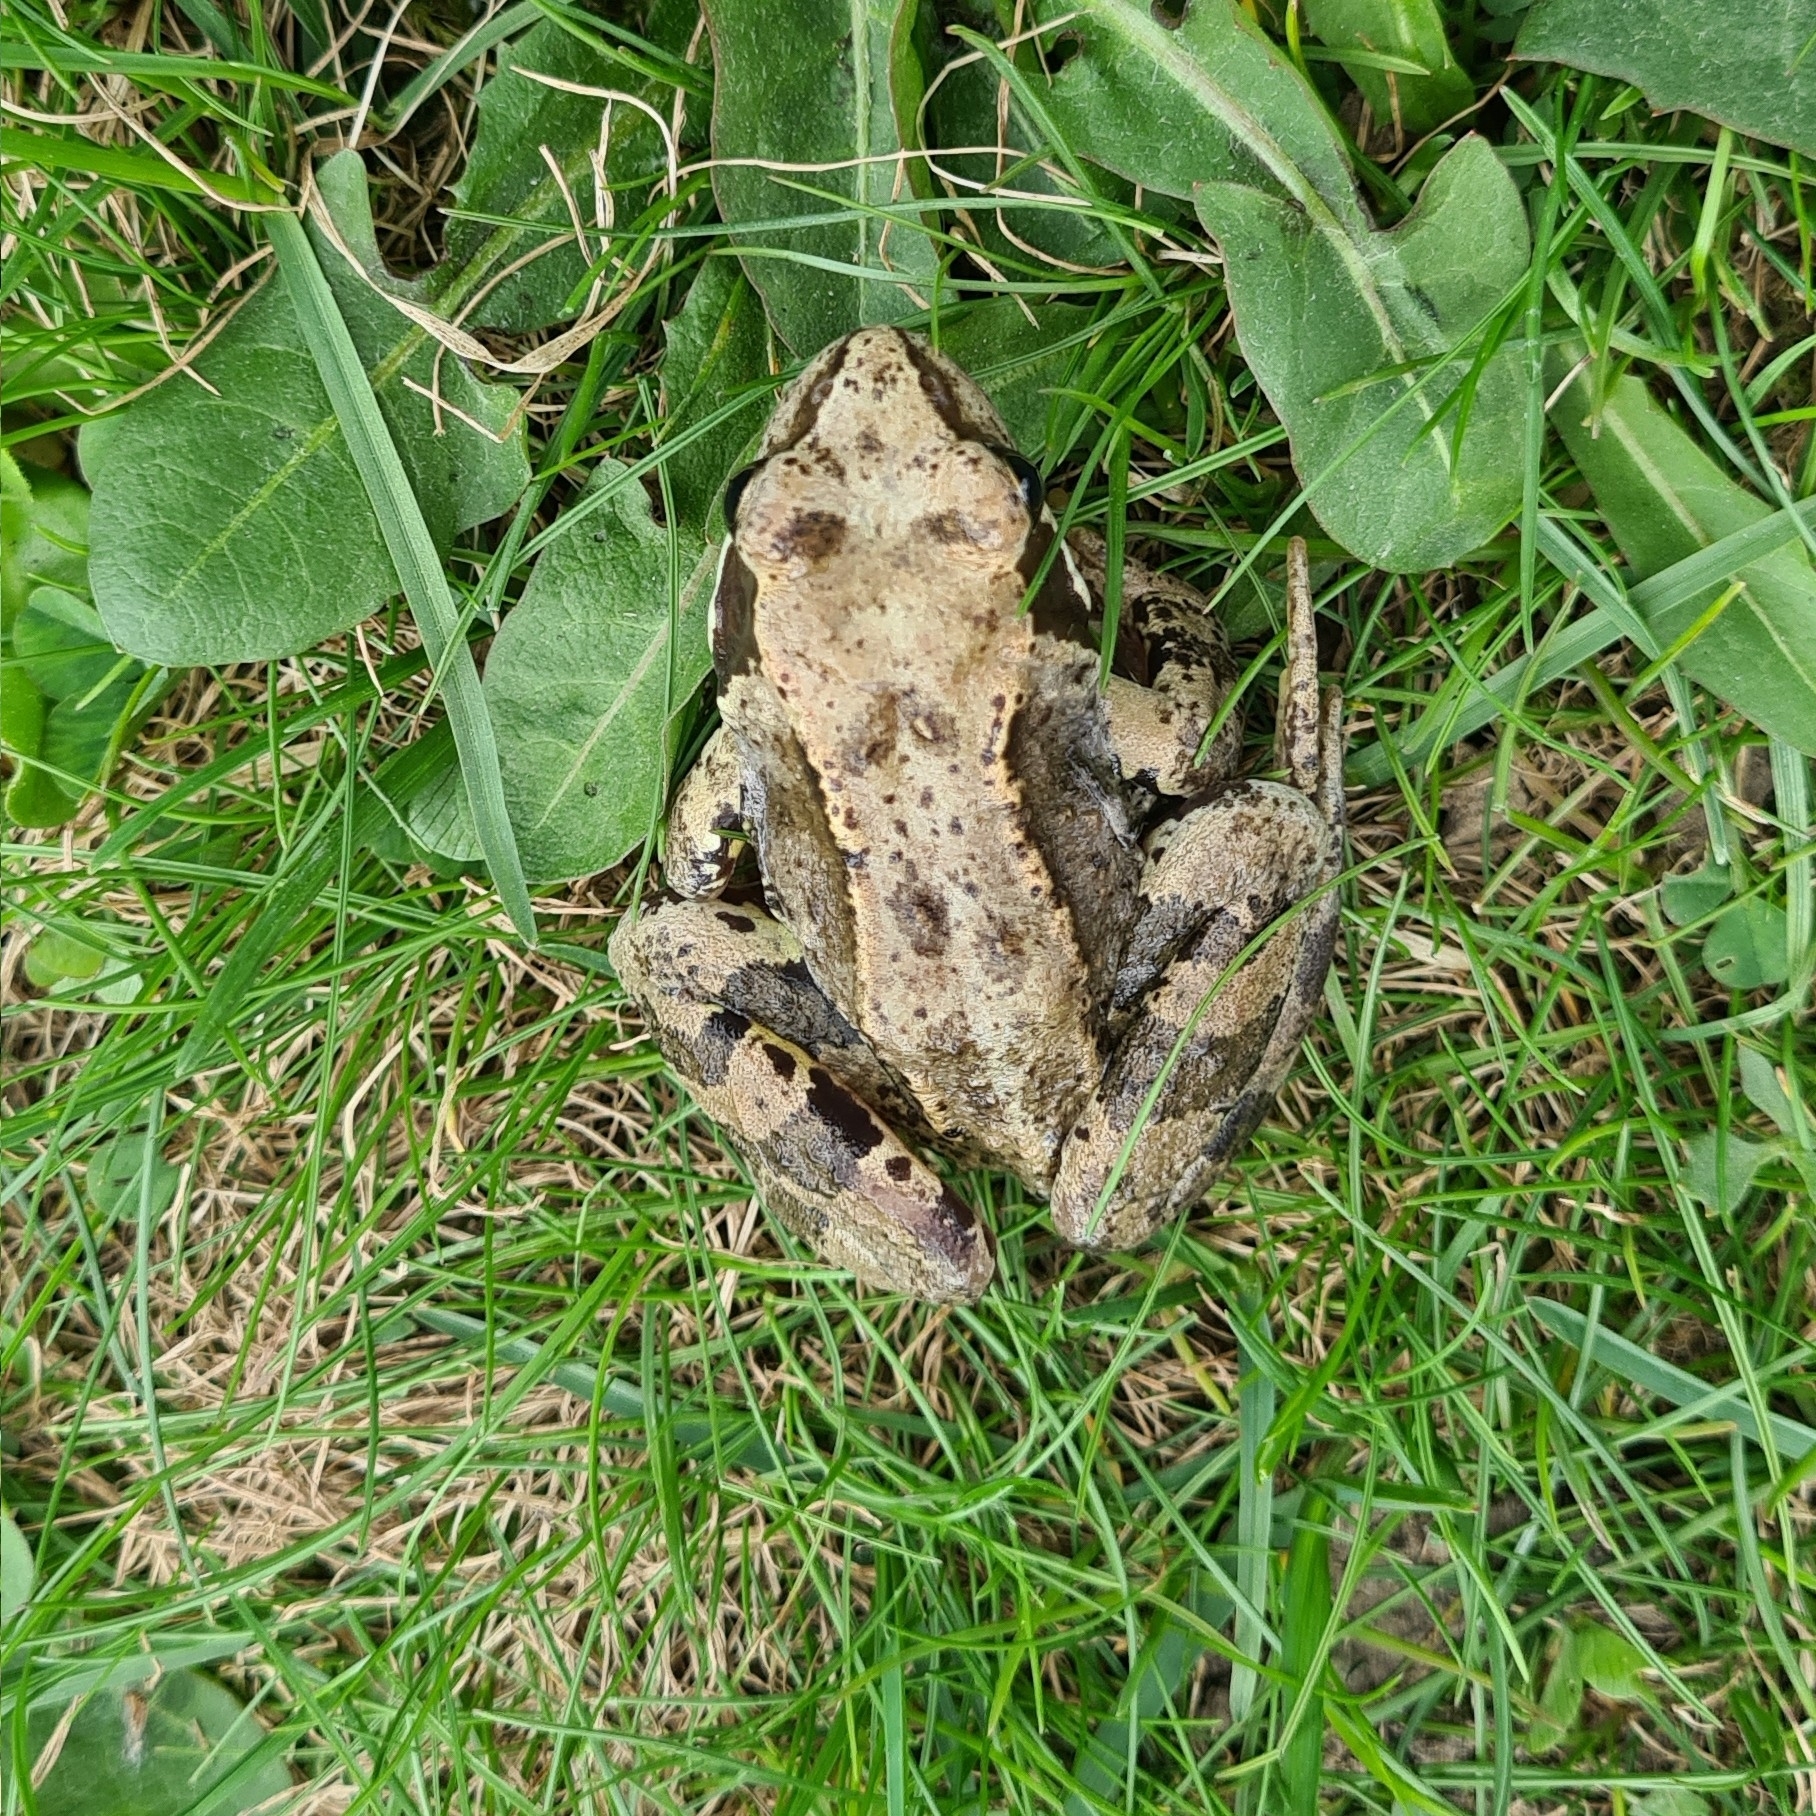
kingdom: Animalia
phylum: Chordata
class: Amphibia
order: Anura
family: Ranidae
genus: Rana
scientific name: Rana temporaria
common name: Common frog
